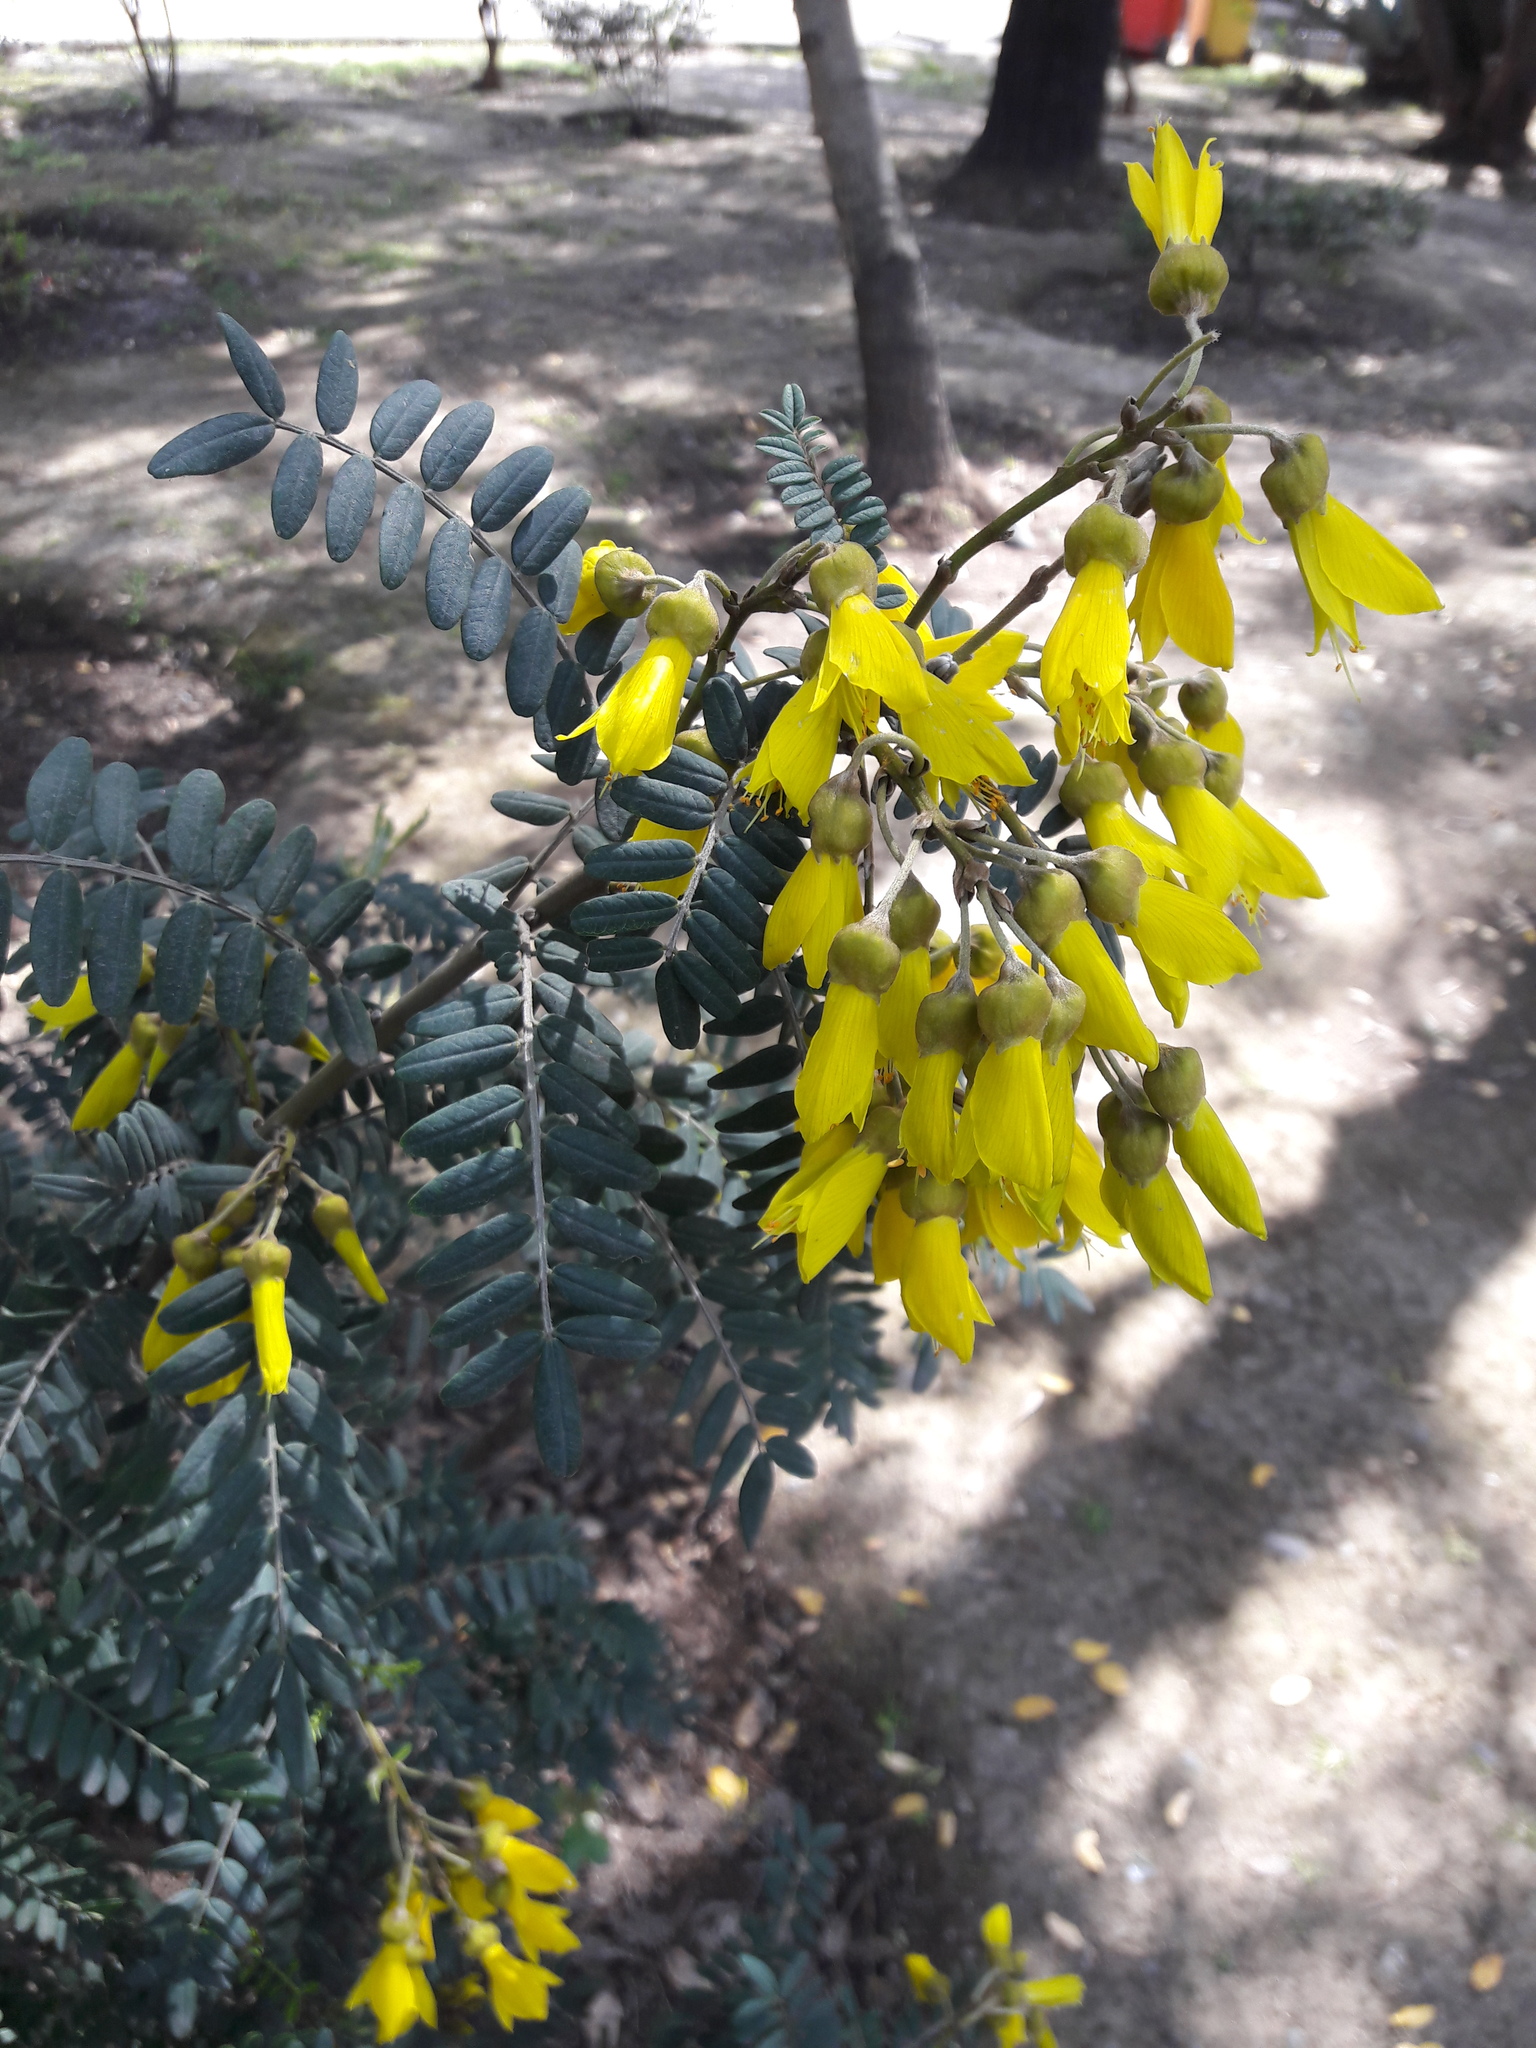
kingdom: Plantae
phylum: Tracheophyta
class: Magnoliopsida
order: Fabales
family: Fabaceae
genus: Sophora
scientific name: Sophora macrocarpa
